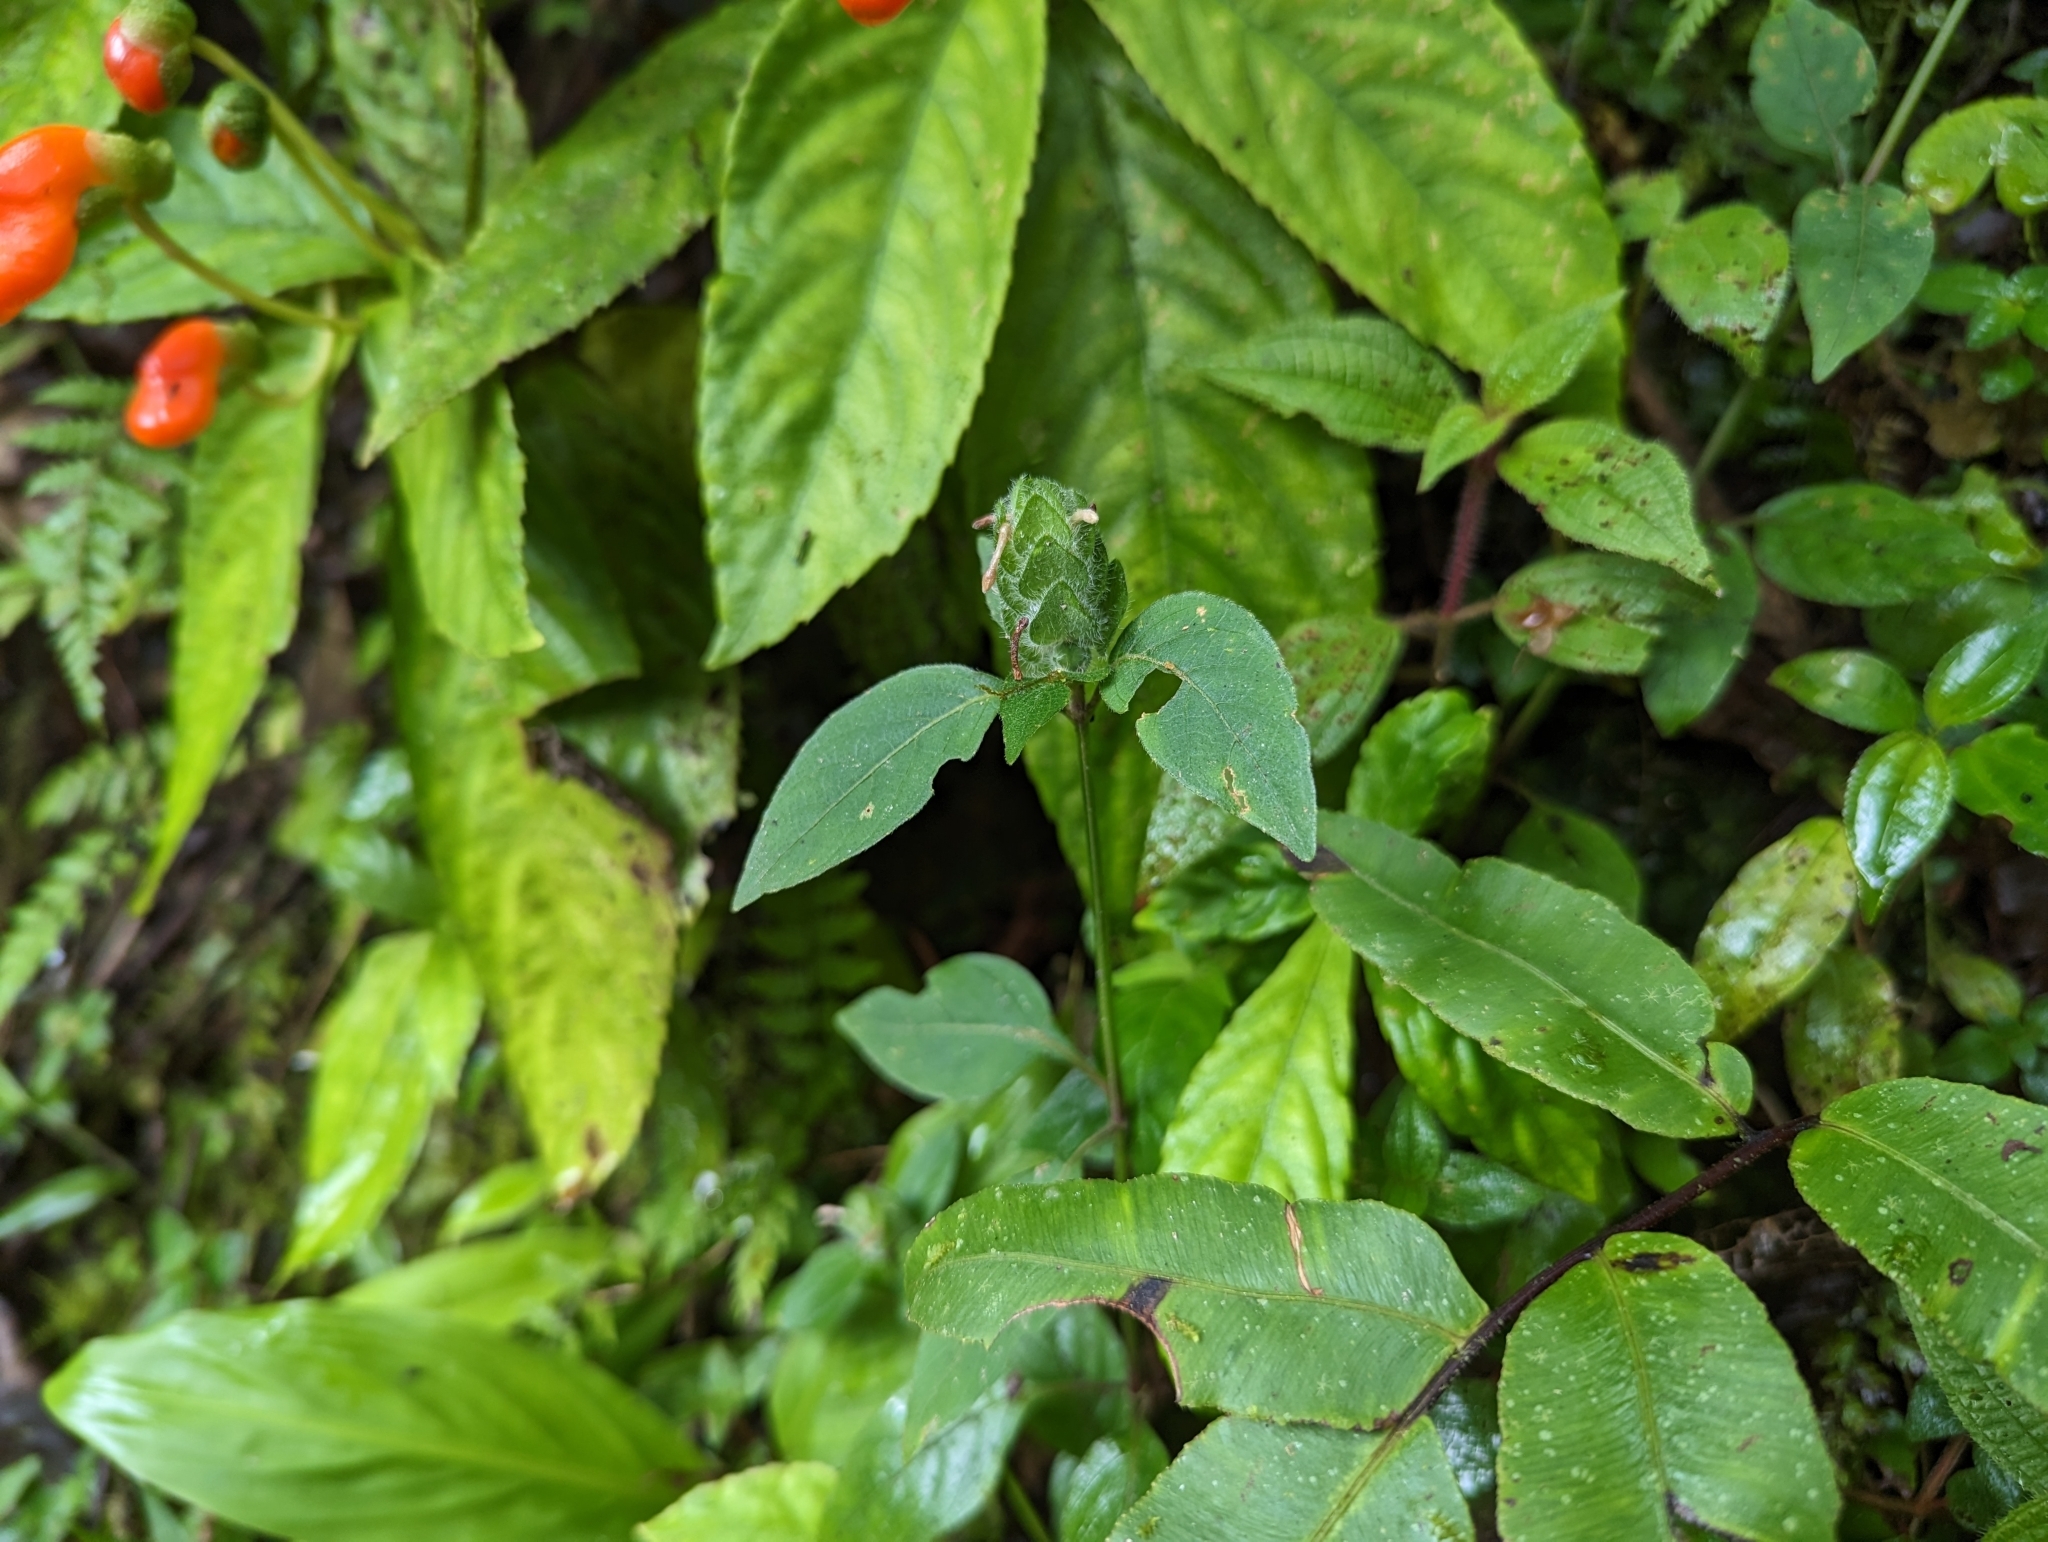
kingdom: Plantae
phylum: Tracheophyta
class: Magnoliopsida
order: Lamiales
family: Acanthaceae
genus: Ruellia
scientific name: Ruellia blechum
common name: Browne's blechum
